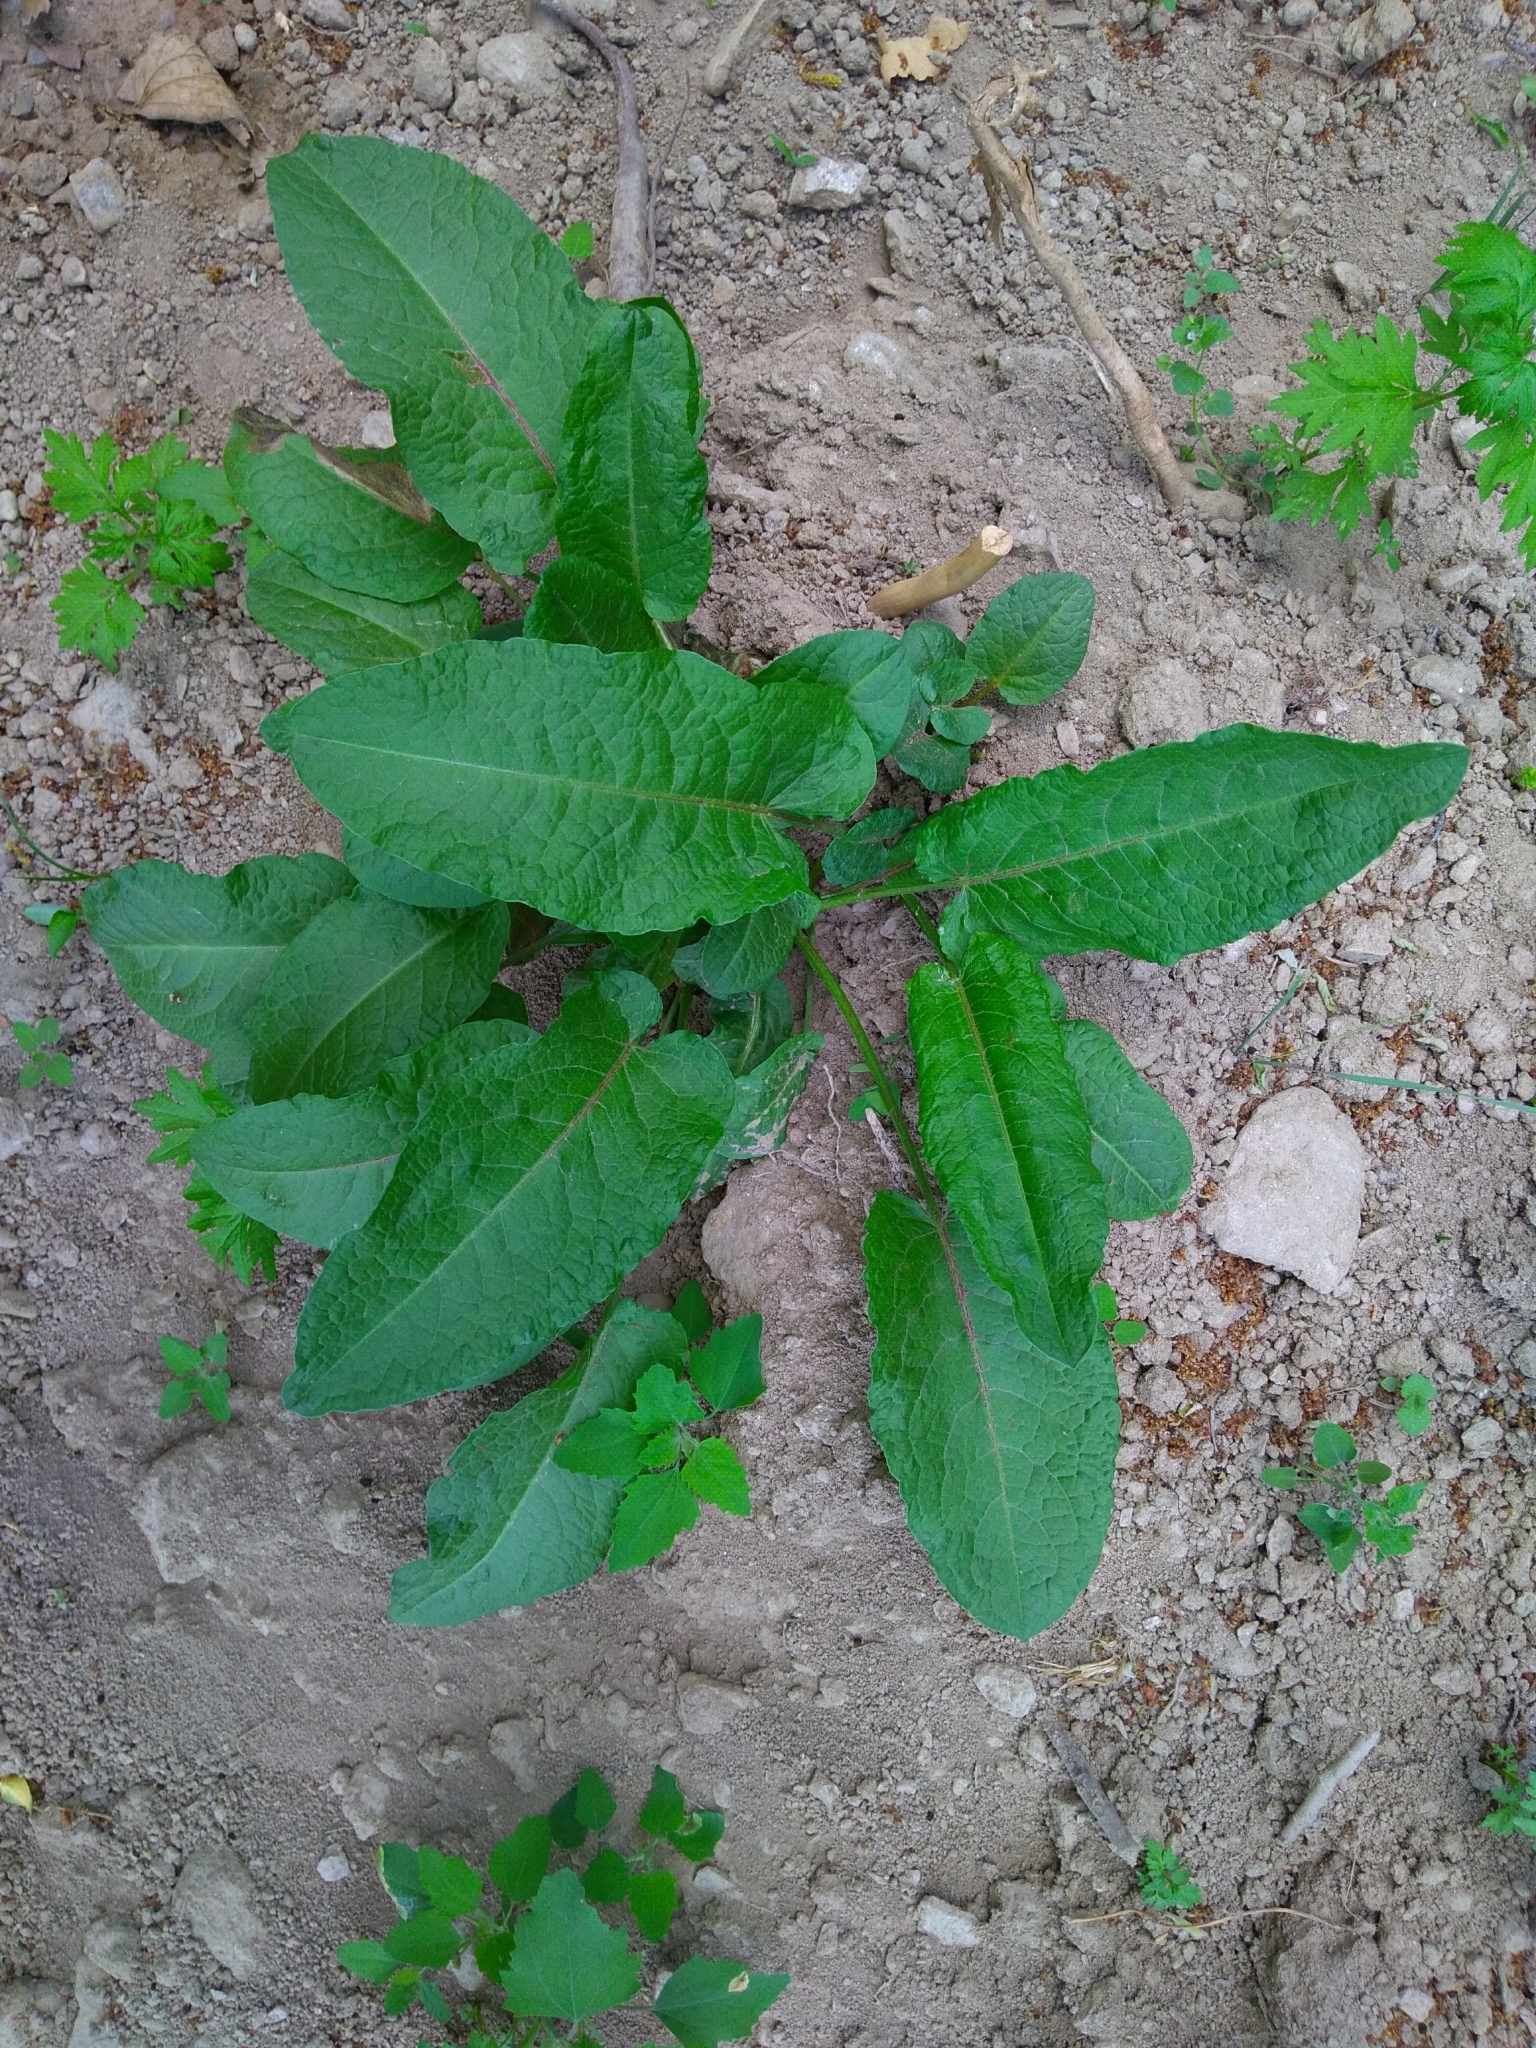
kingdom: Plantae
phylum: Tracheophyta
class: Magnoliopsida
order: Caryophyllales
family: Polygonaceae
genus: Rumex
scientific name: Rumex obtusifolius
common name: Bitter dock
